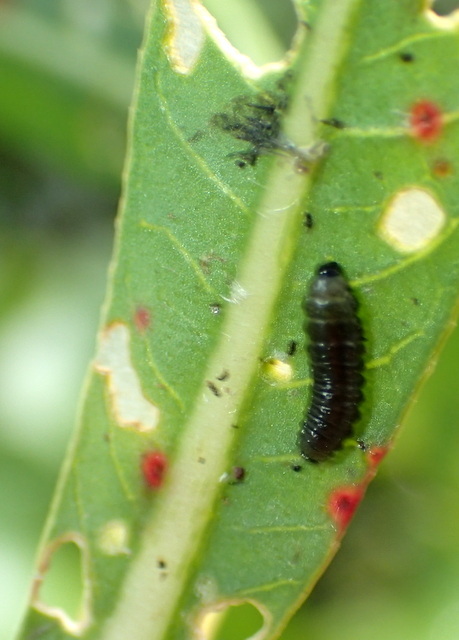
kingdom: Animalia
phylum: Arthropoda
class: Insecta
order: Coleoptera
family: Chrysomelidae
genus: Agasicles
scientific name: Agasicles hygrophila
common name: Alligatorweed flea beetle
